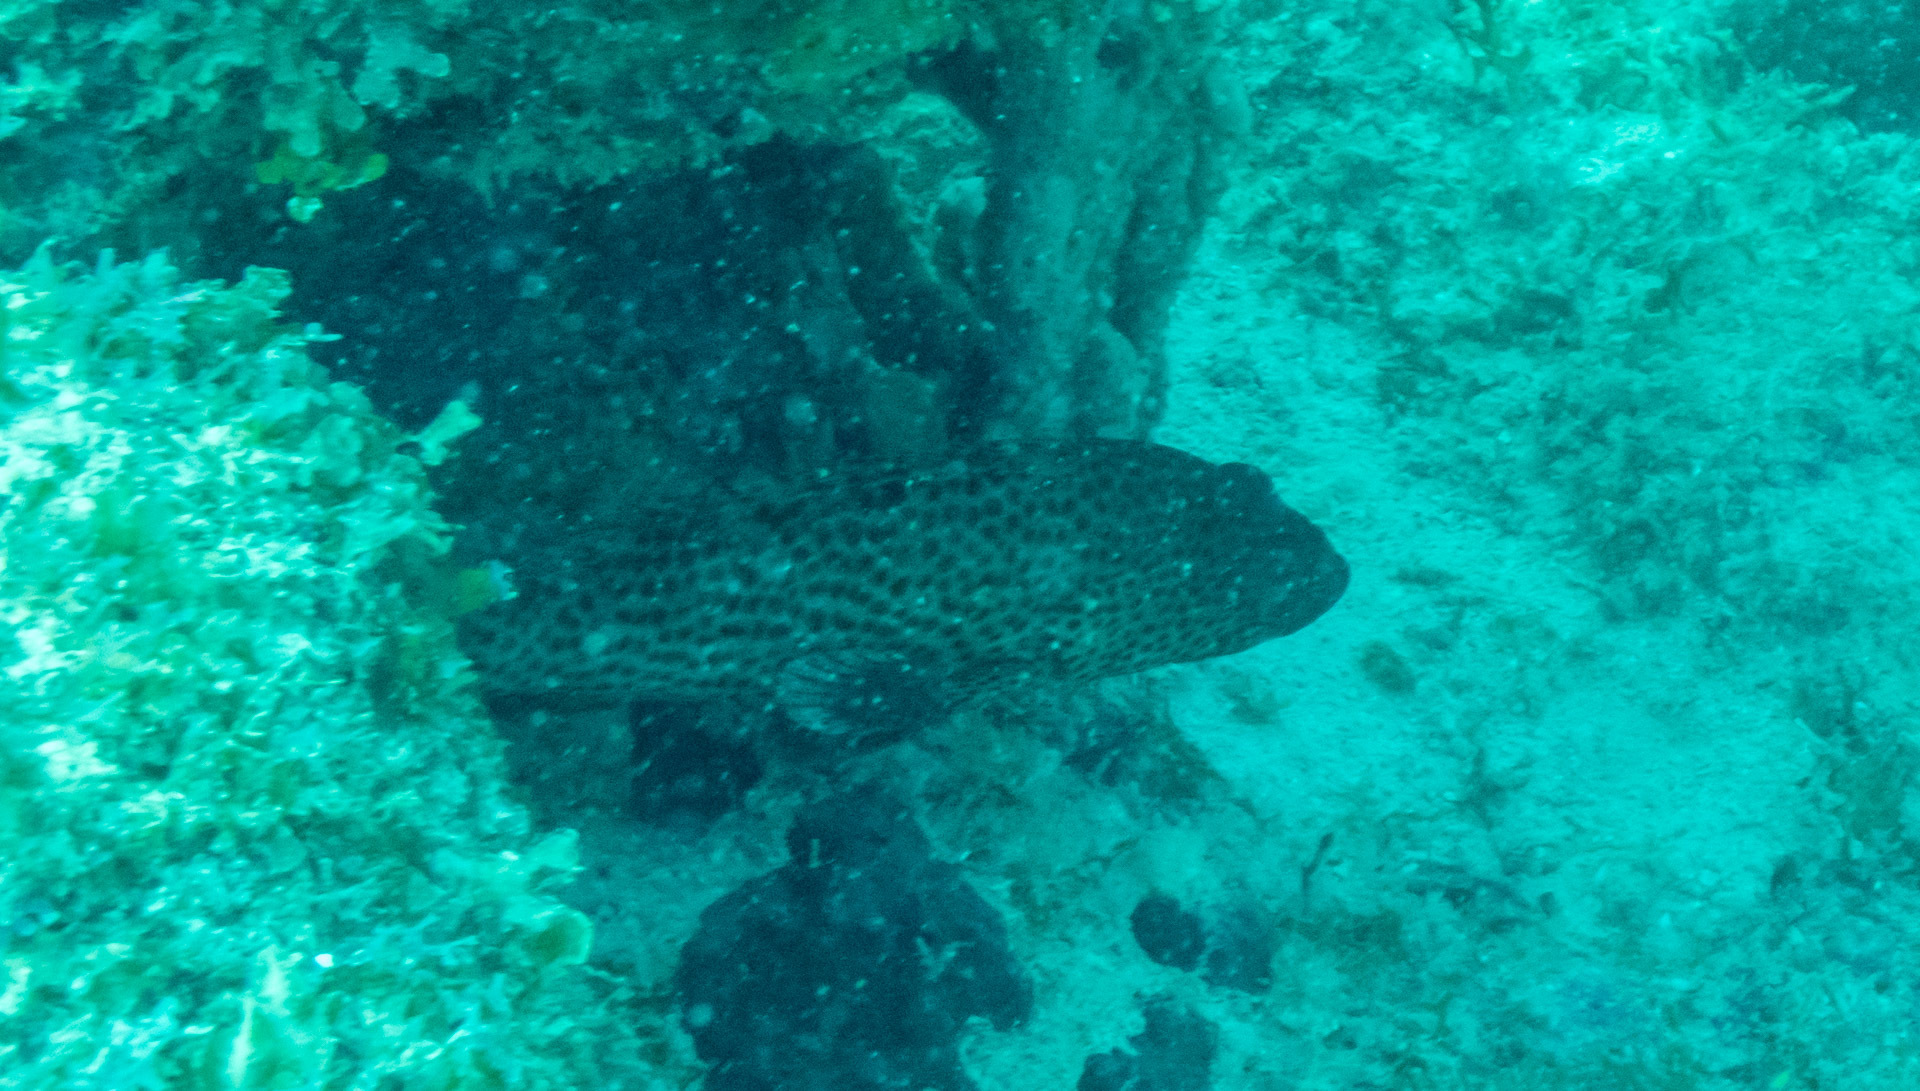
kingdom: Animalia
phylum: Chordata
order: Perciformes
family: Serranidae
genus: Cephalopholis
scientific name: Cephalopholis cruentata
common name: Graysby
